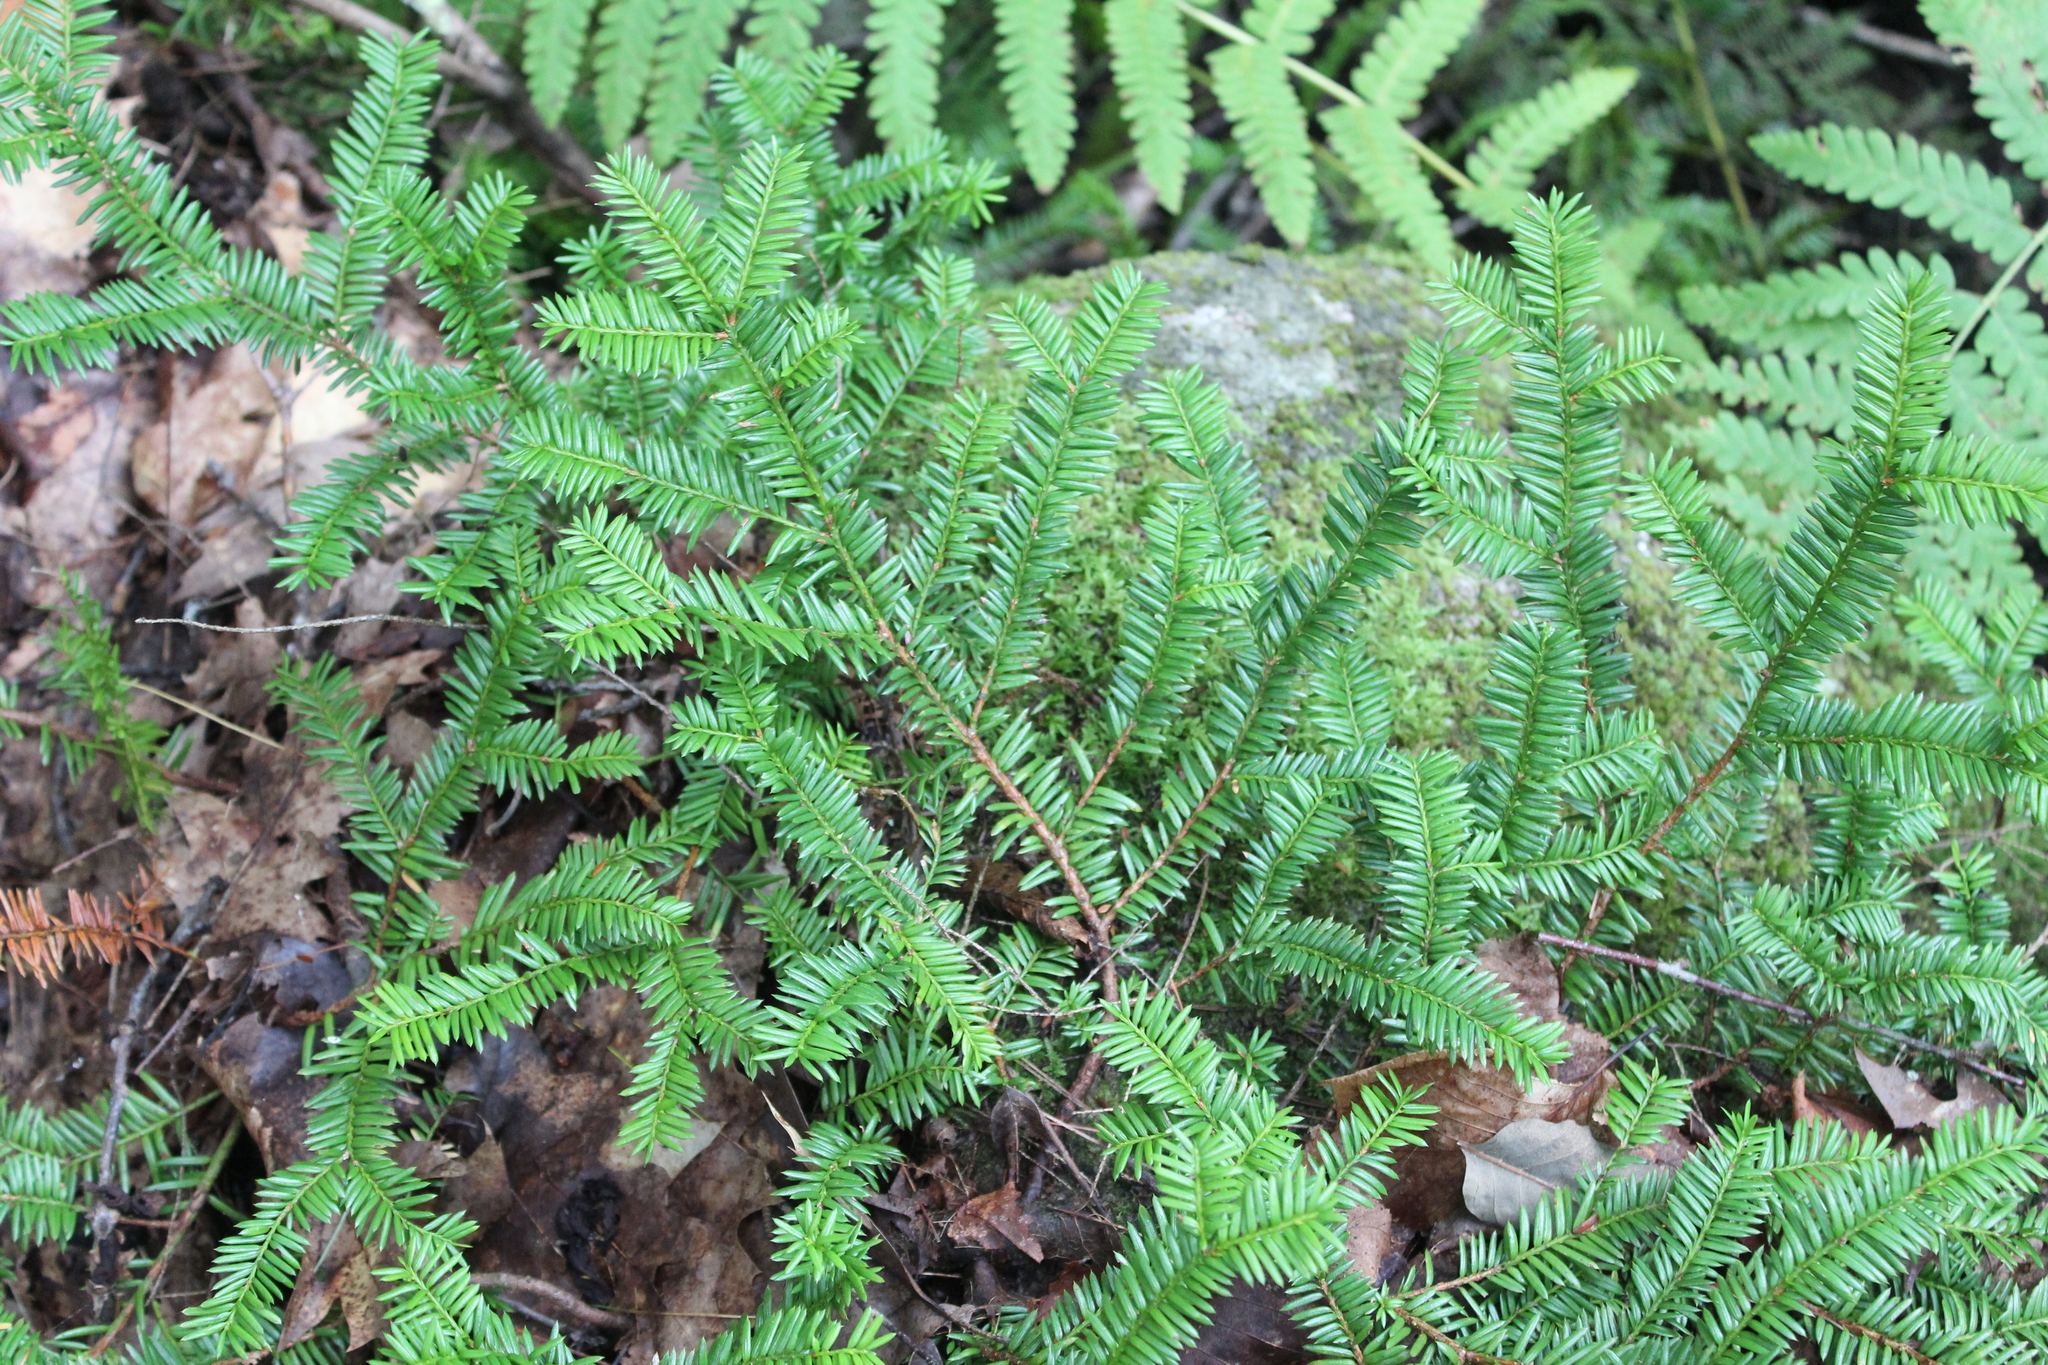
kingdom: Plantae
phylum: Tracheophyta
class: Pinopsida
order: Pinales
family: Taxaceae
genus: Taxus
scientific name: Taxus canadensis
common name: American yew
